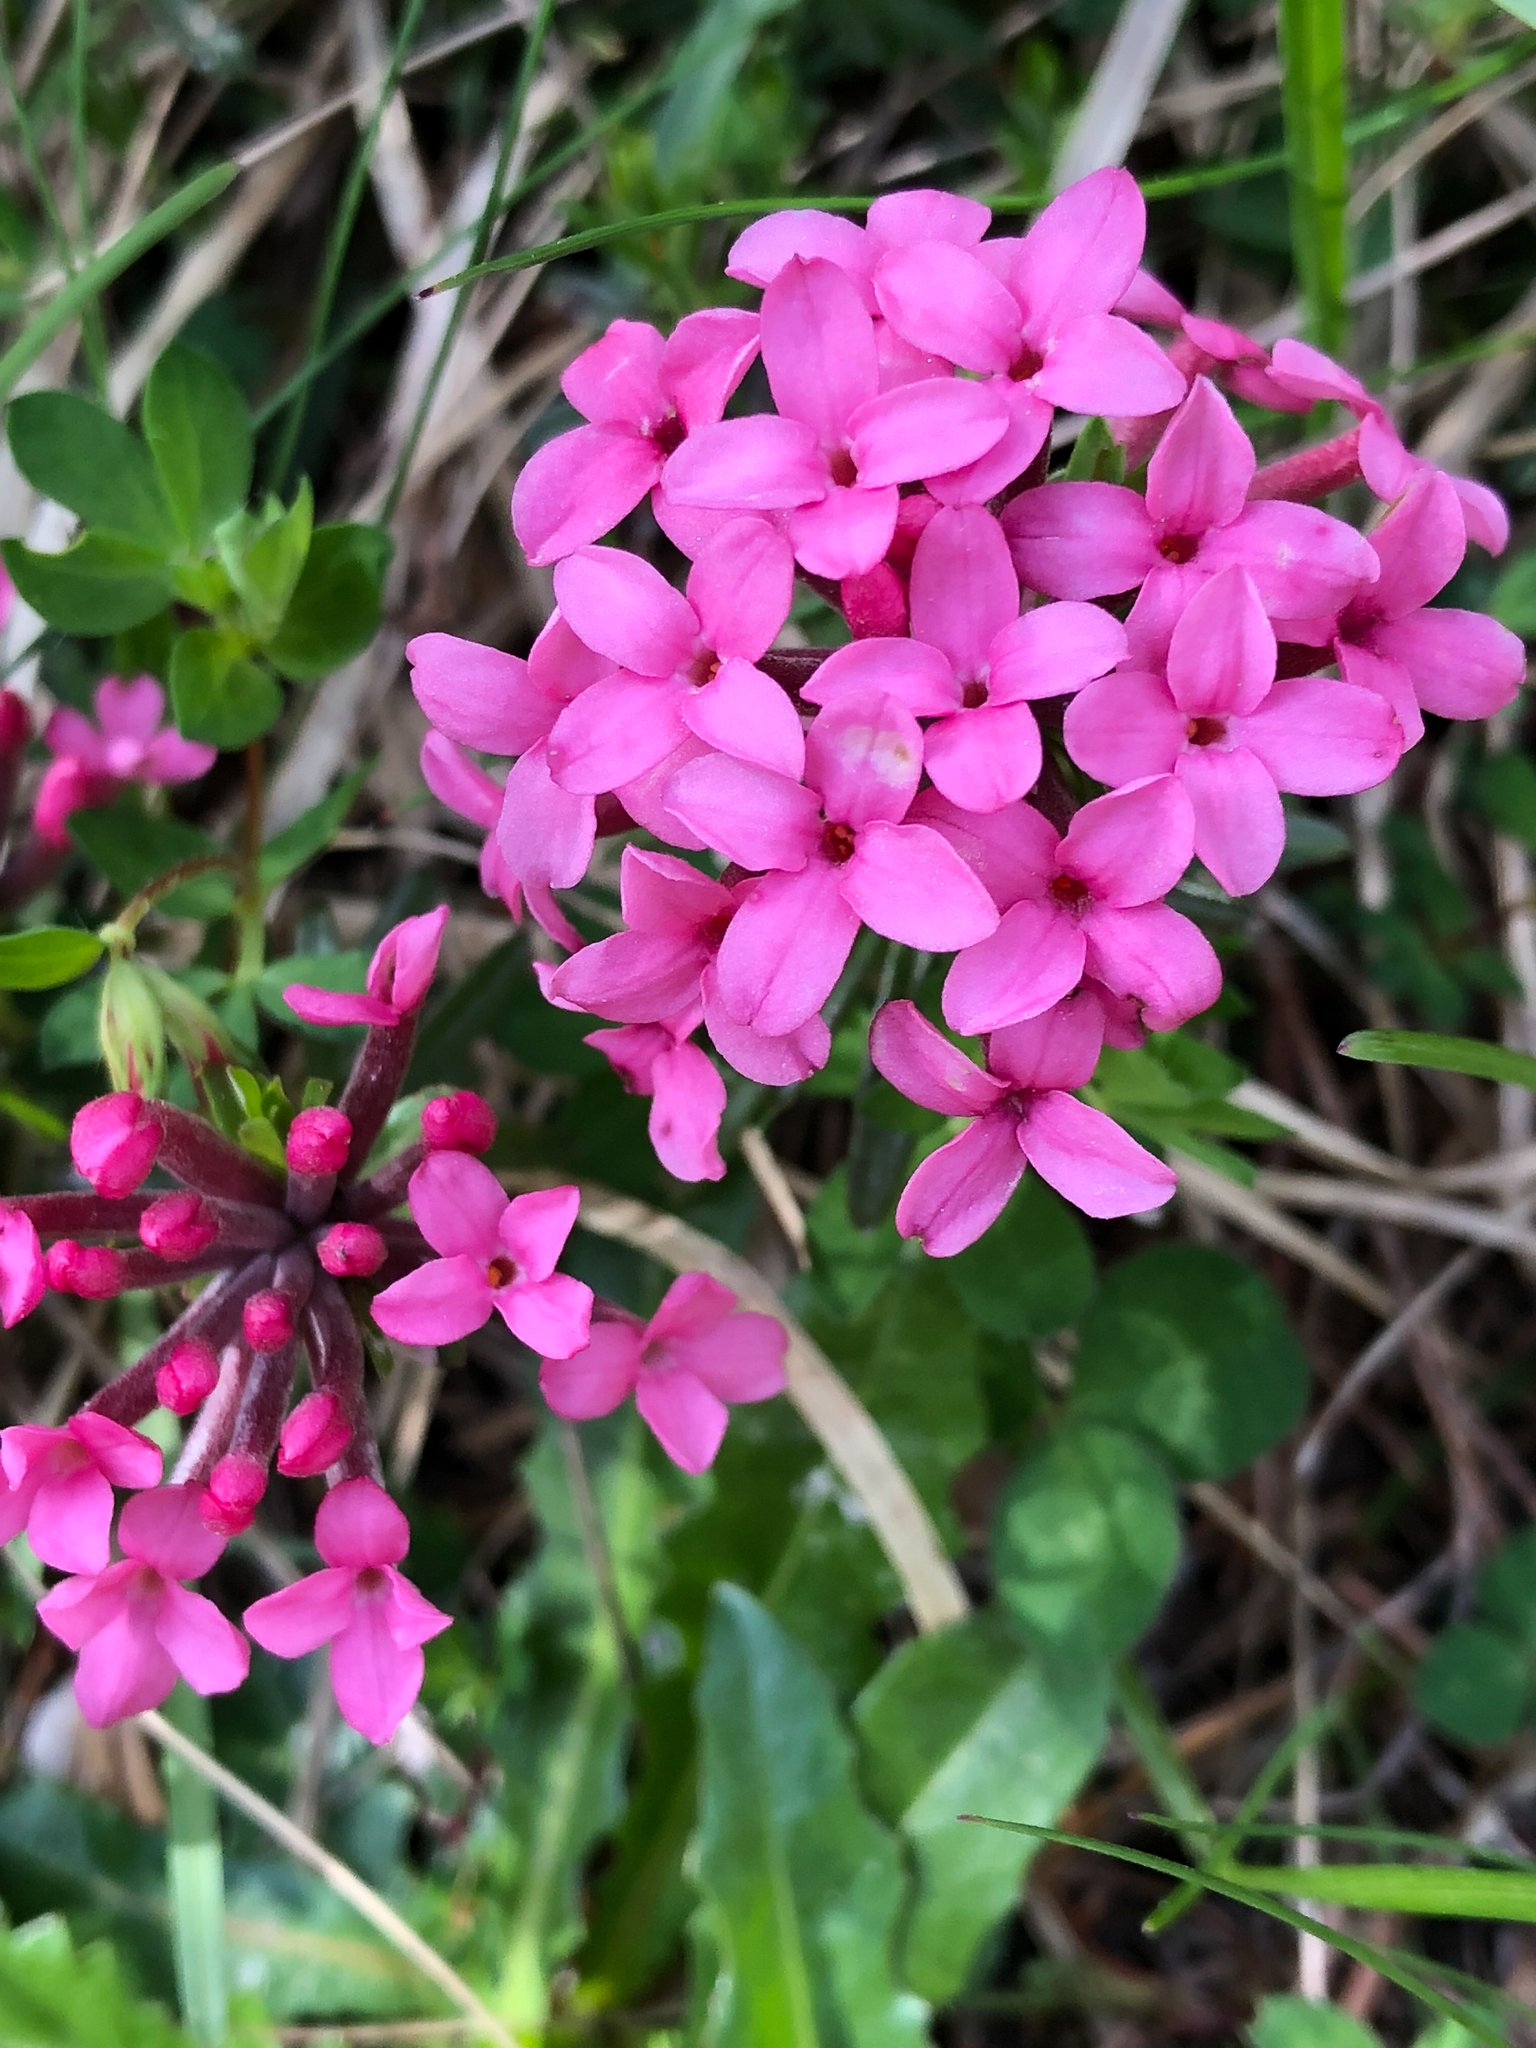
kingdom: Plantae
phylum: Tracheophyta
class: Magnoliopsida
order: Malvales
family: Thymelaeaceae
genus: Daphne
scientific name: Daphne cneorum
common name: Garland-flower
